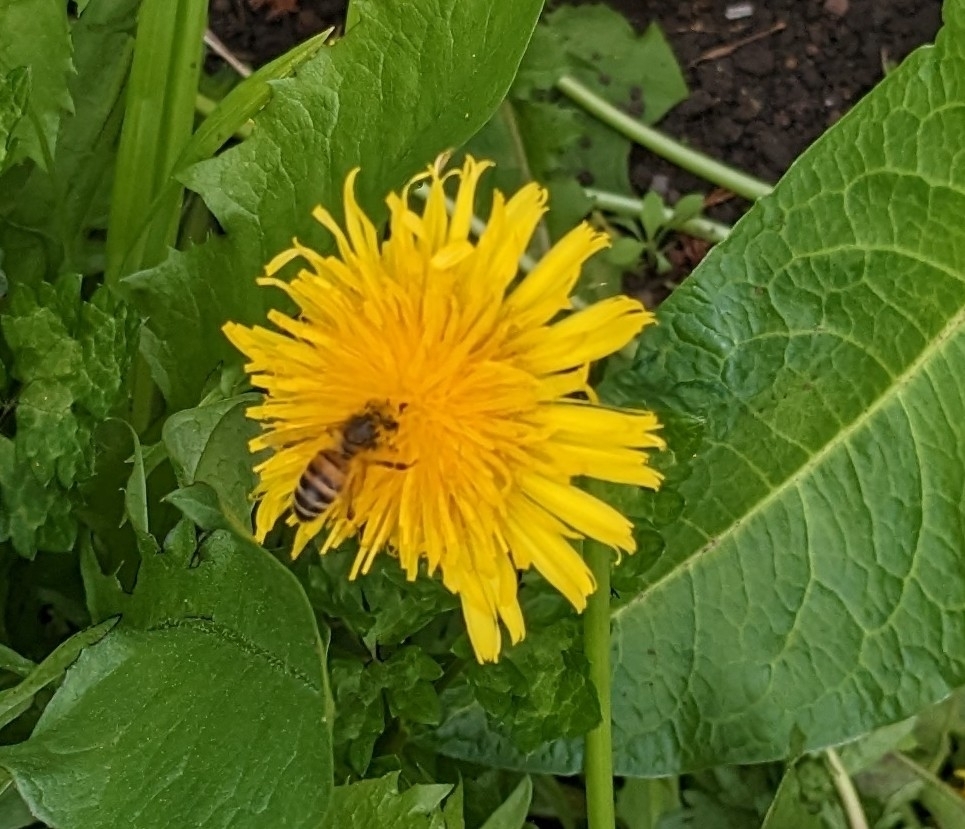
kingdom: Animalia
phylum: Arthropoda
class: Insecta
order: Hymenoptera
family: Apidae
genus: Apis
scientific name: Apis mellifera
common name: Honey bee
